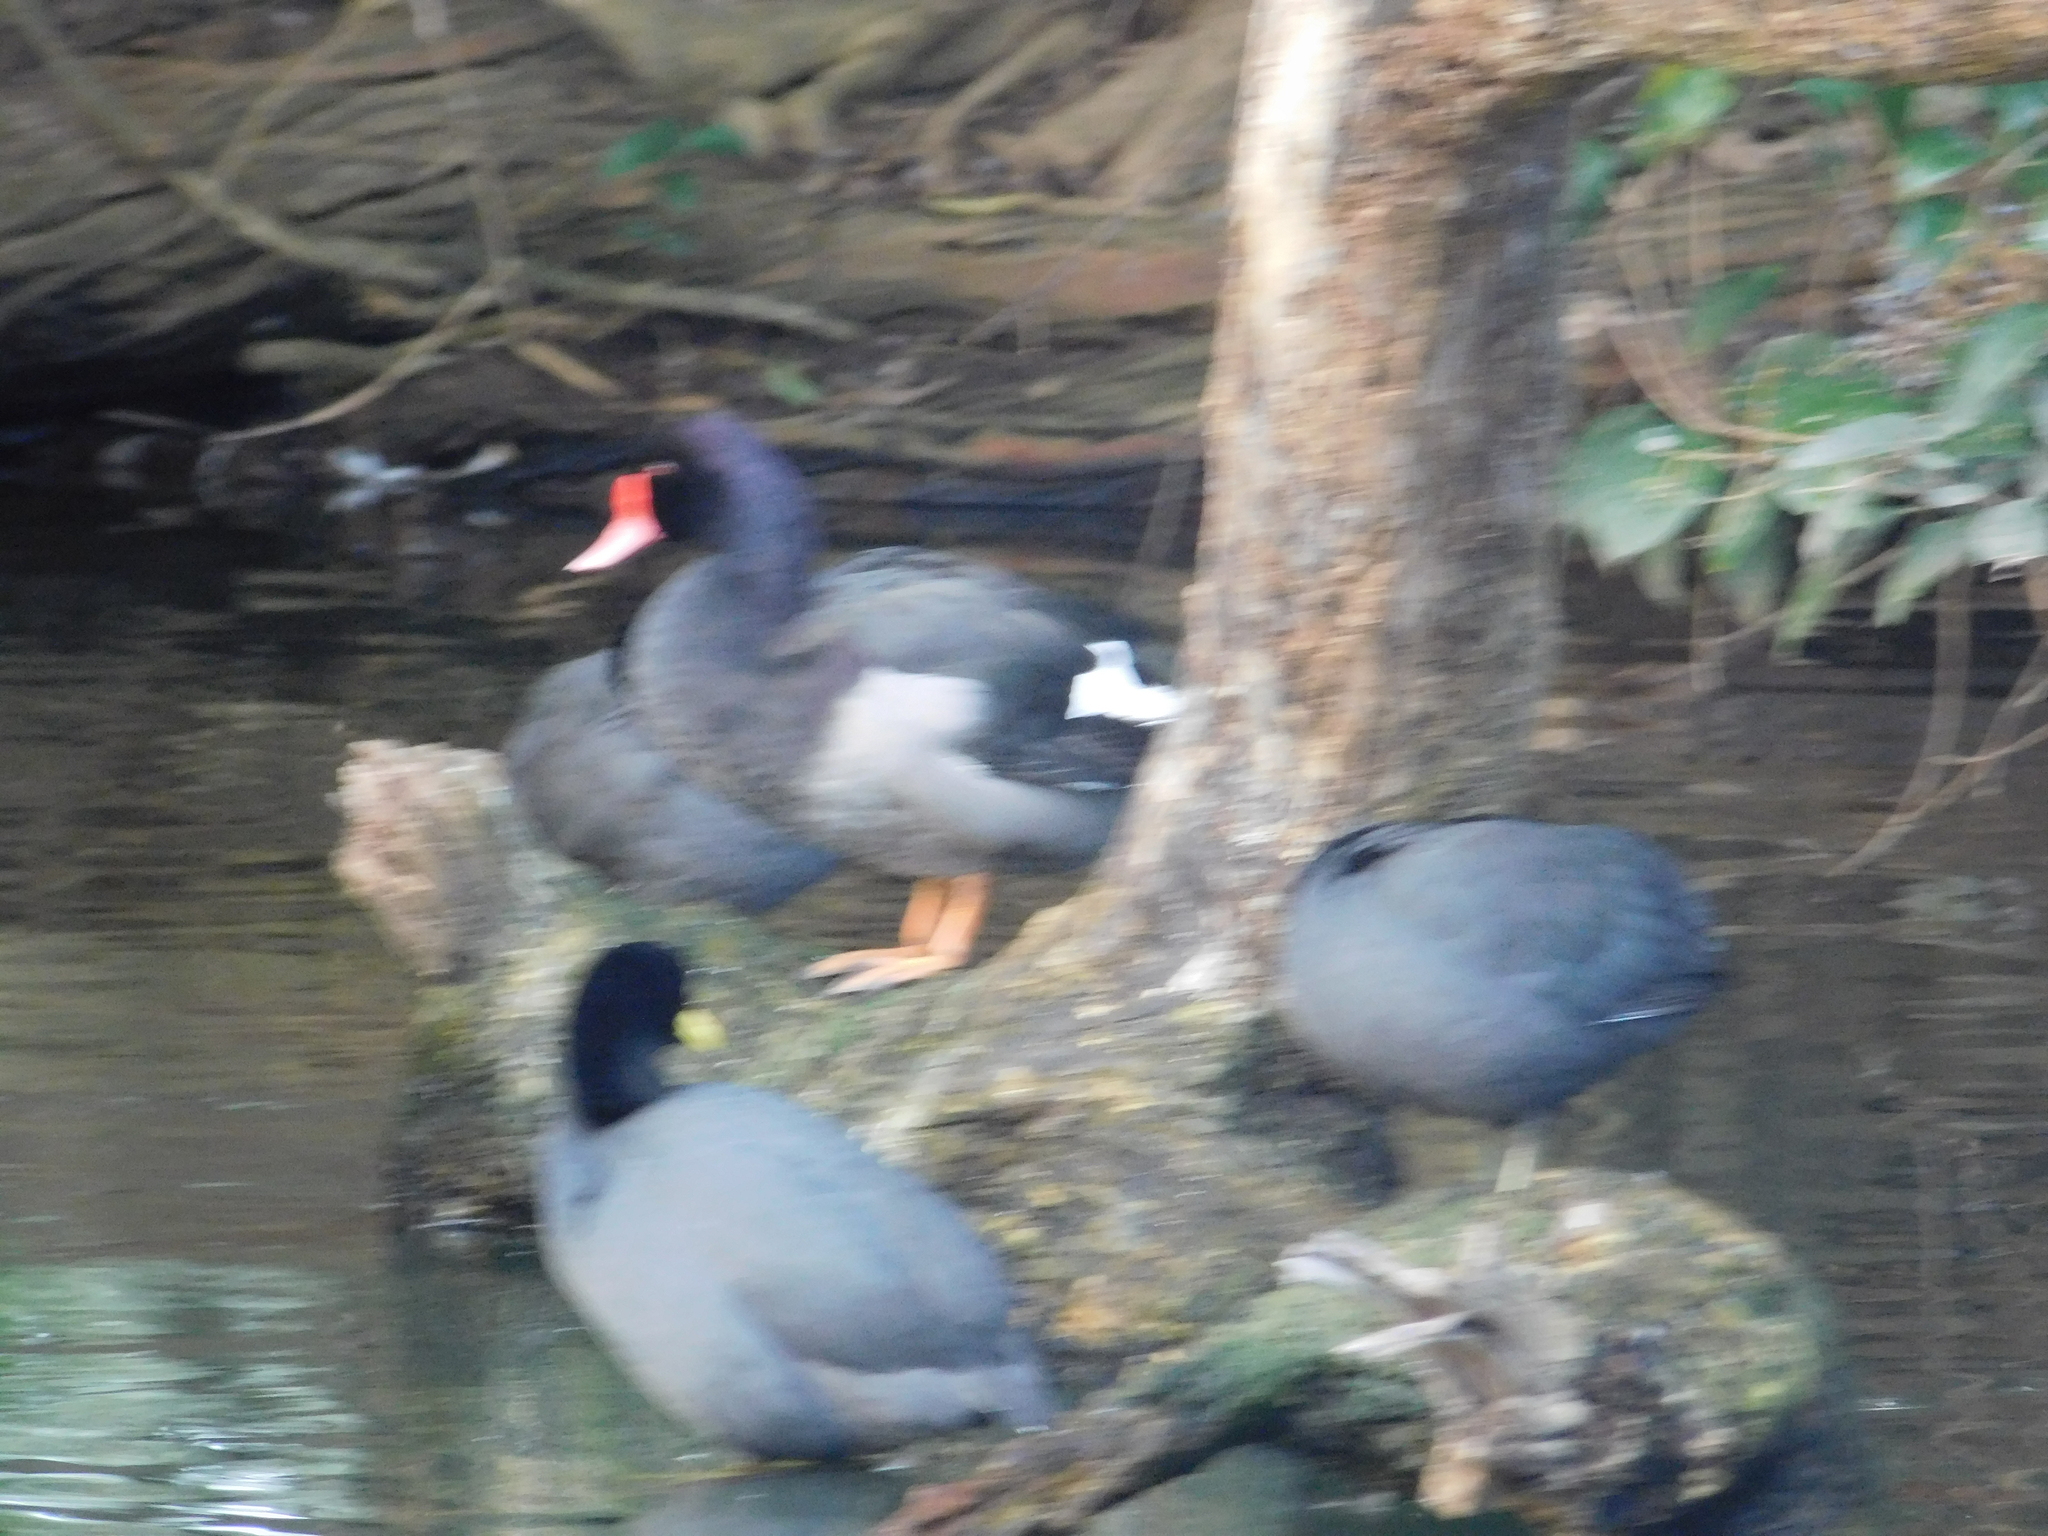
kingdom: Animalia
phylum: Chordata
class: Aves
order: Anseriformes
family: Anatidae
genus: Netta
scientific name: Netta peposaca
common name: Rosy-billed pochard
